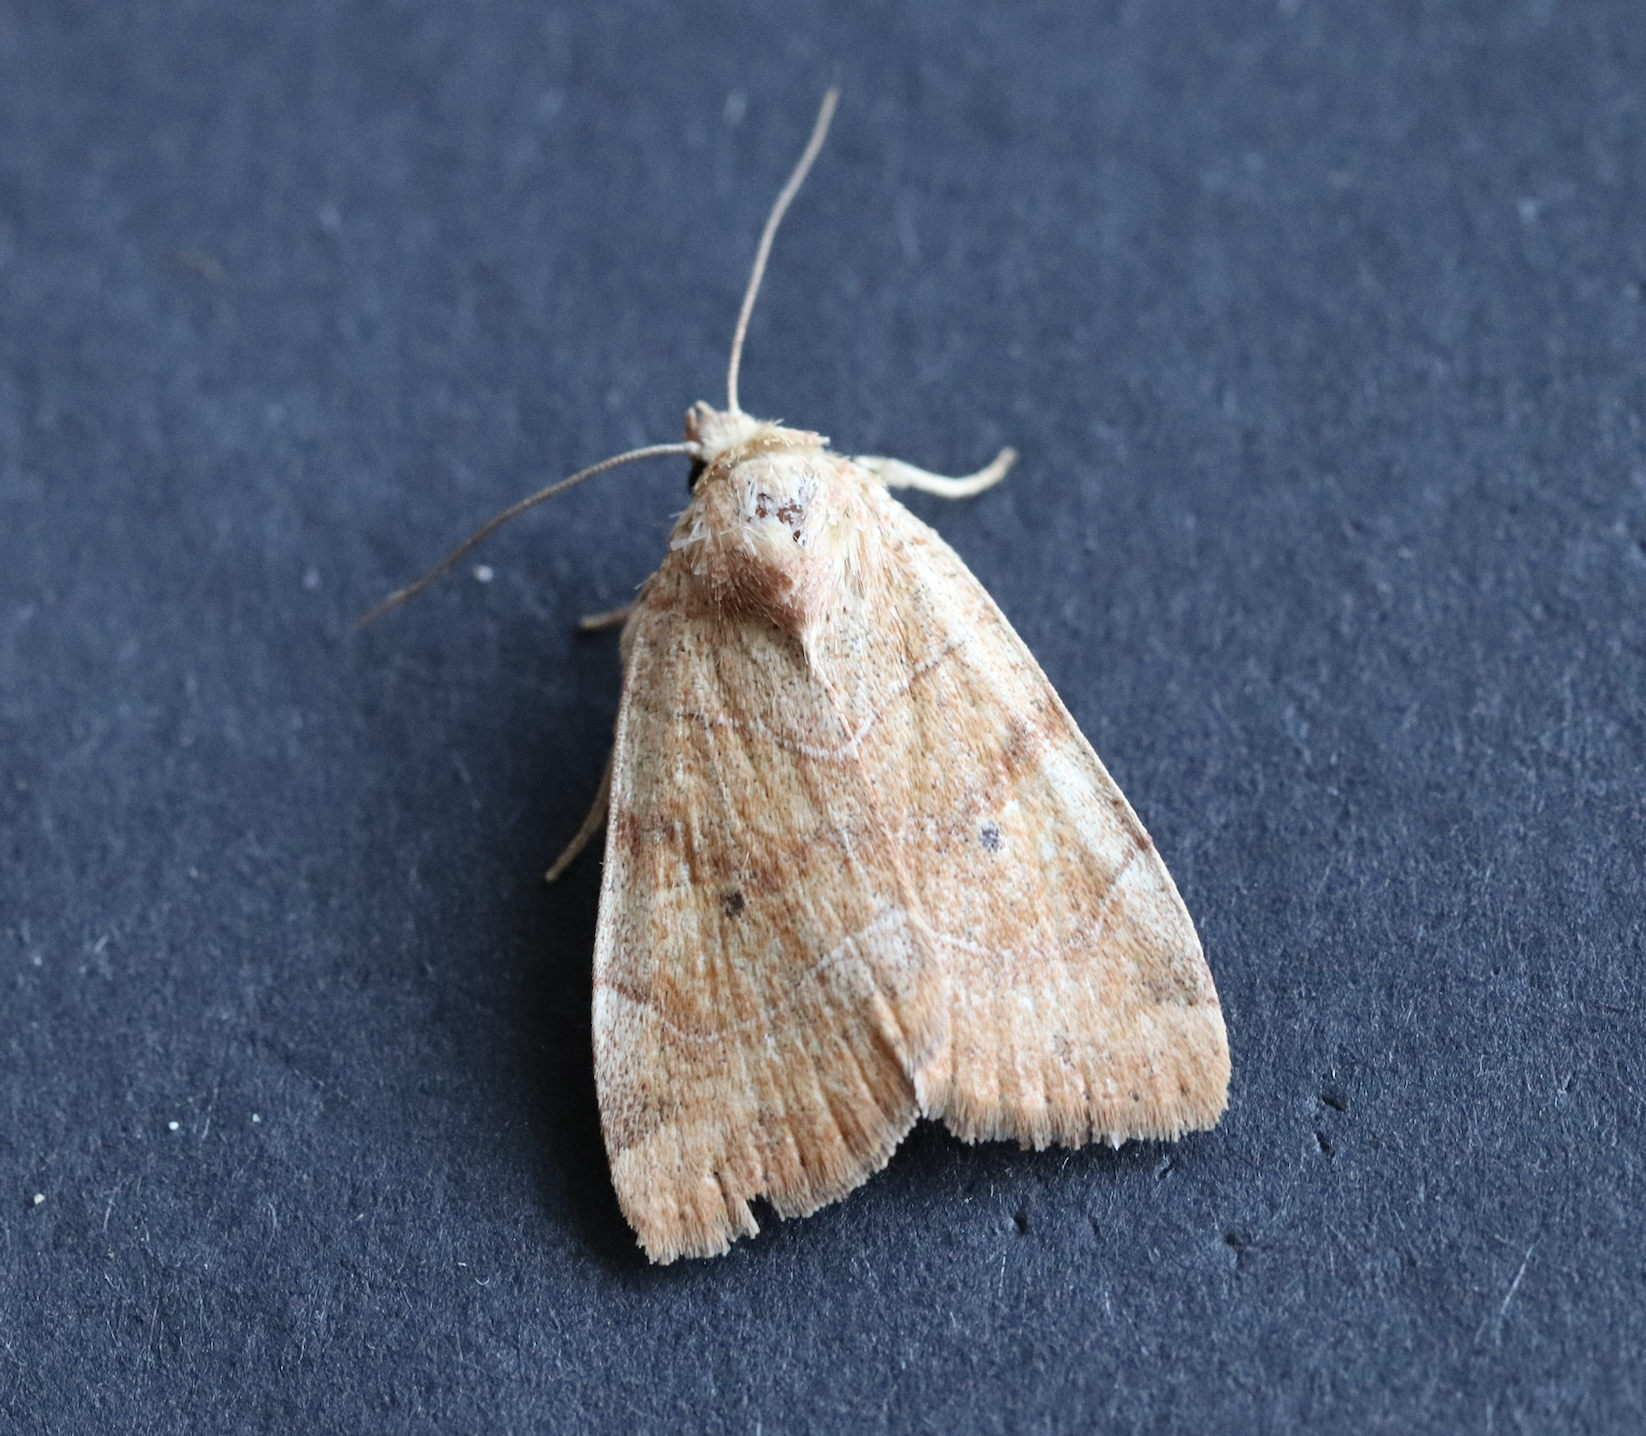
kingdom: Animalia
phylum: Arthropoda
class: Insecta
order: Lepidoptera
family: Noctuidae
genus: Cosmia
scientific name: Cosmia trapezina
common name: Dun-bar
